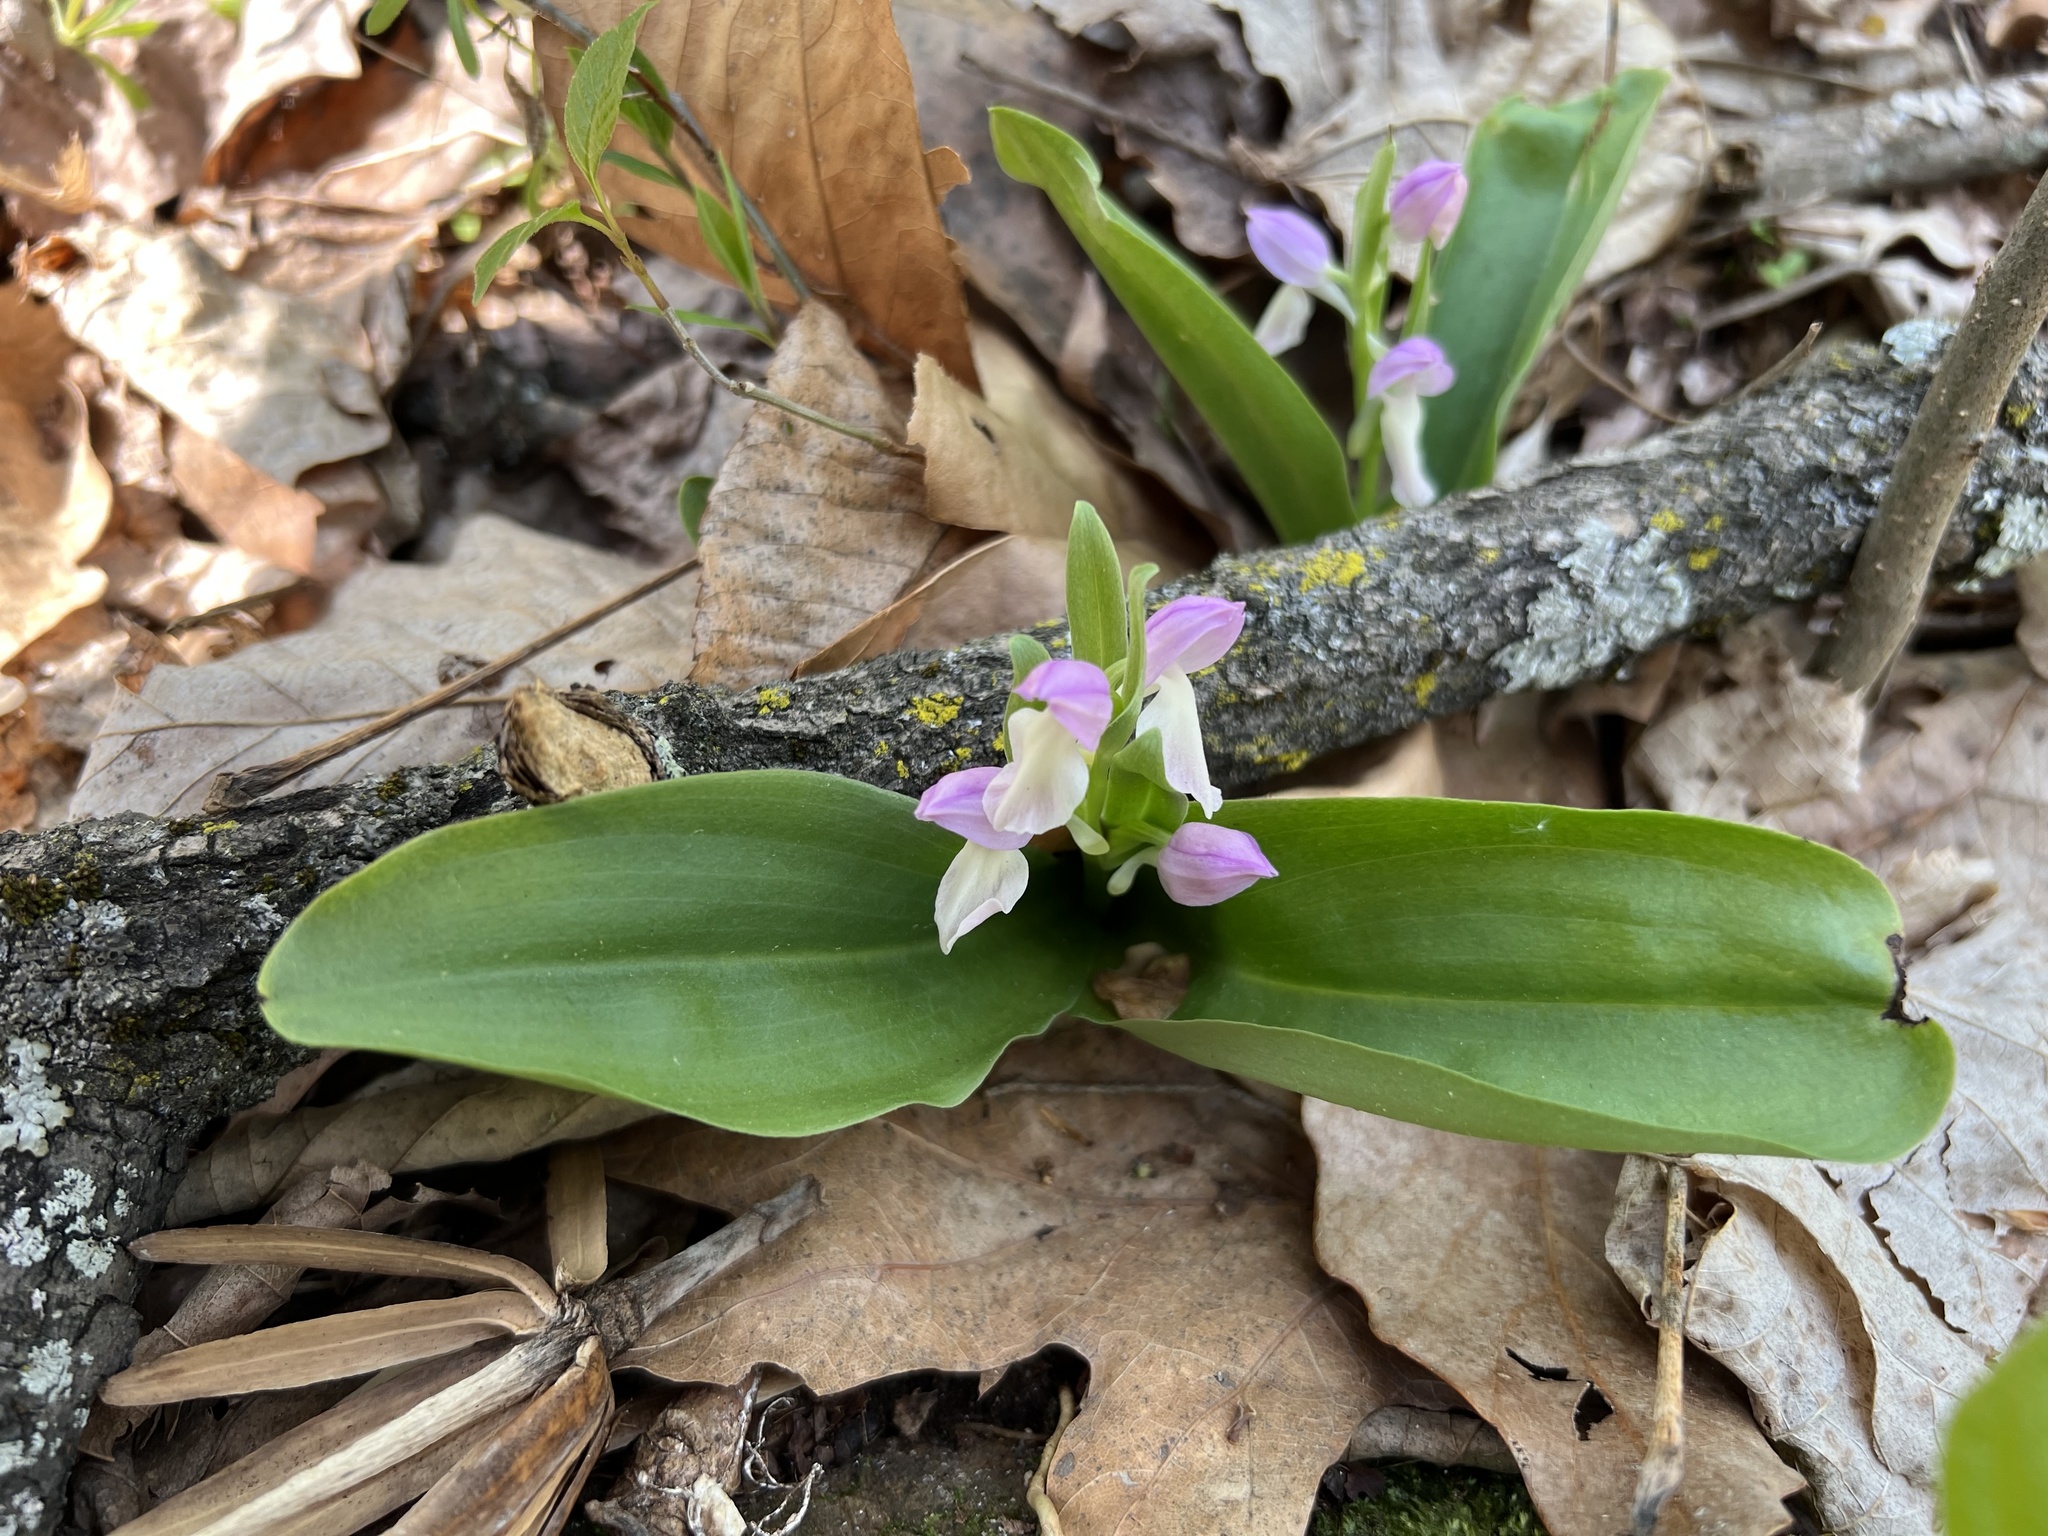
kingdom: Plantae
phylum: Tracheophyta
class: Liliopsida
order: Asparagales
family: Orchidaceae
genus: Galearis
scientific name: Galearis spectabilis
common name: Purple-hooded orchis
